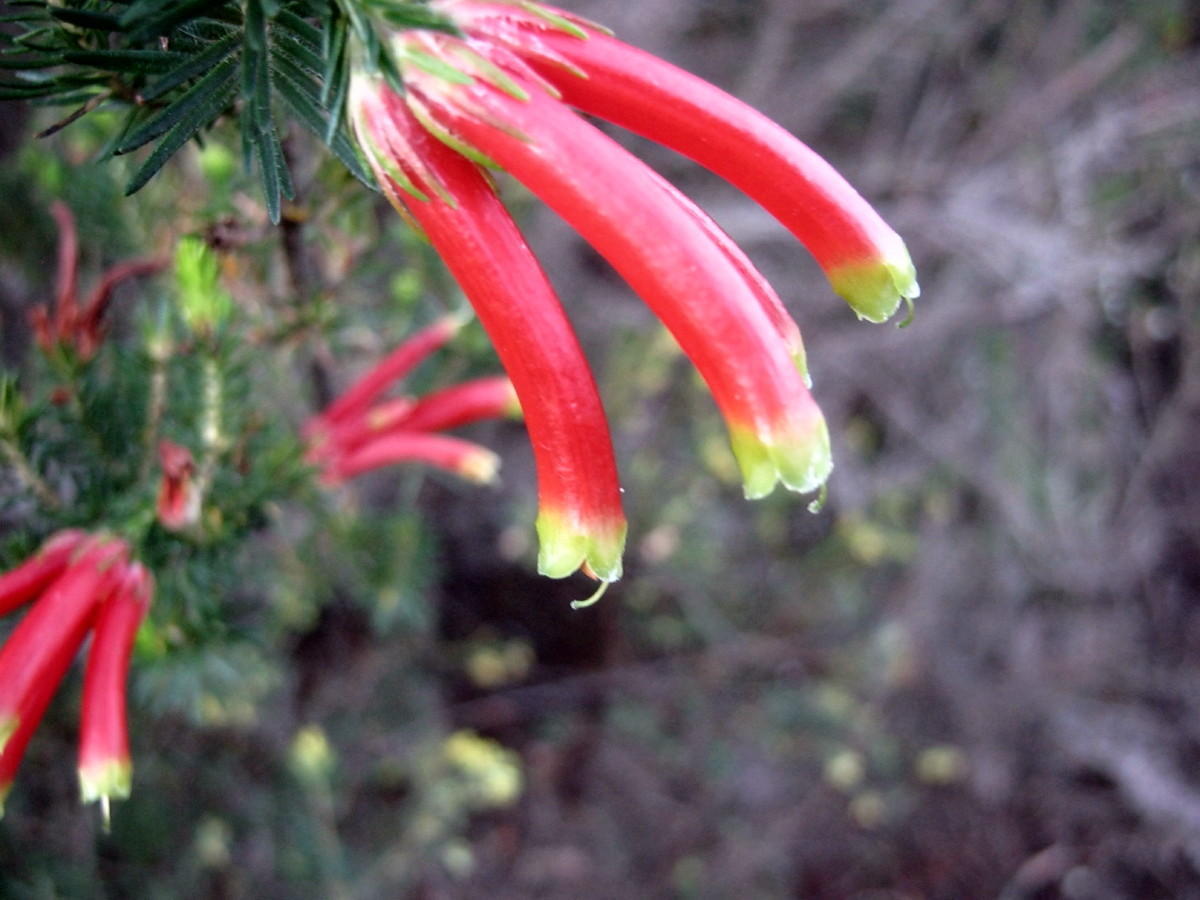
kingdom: Plantae
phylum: Tracheophyta
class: Magnoliopsida
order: Ericales
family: Ericaceae
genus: Erica
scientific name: Erica unicolor
